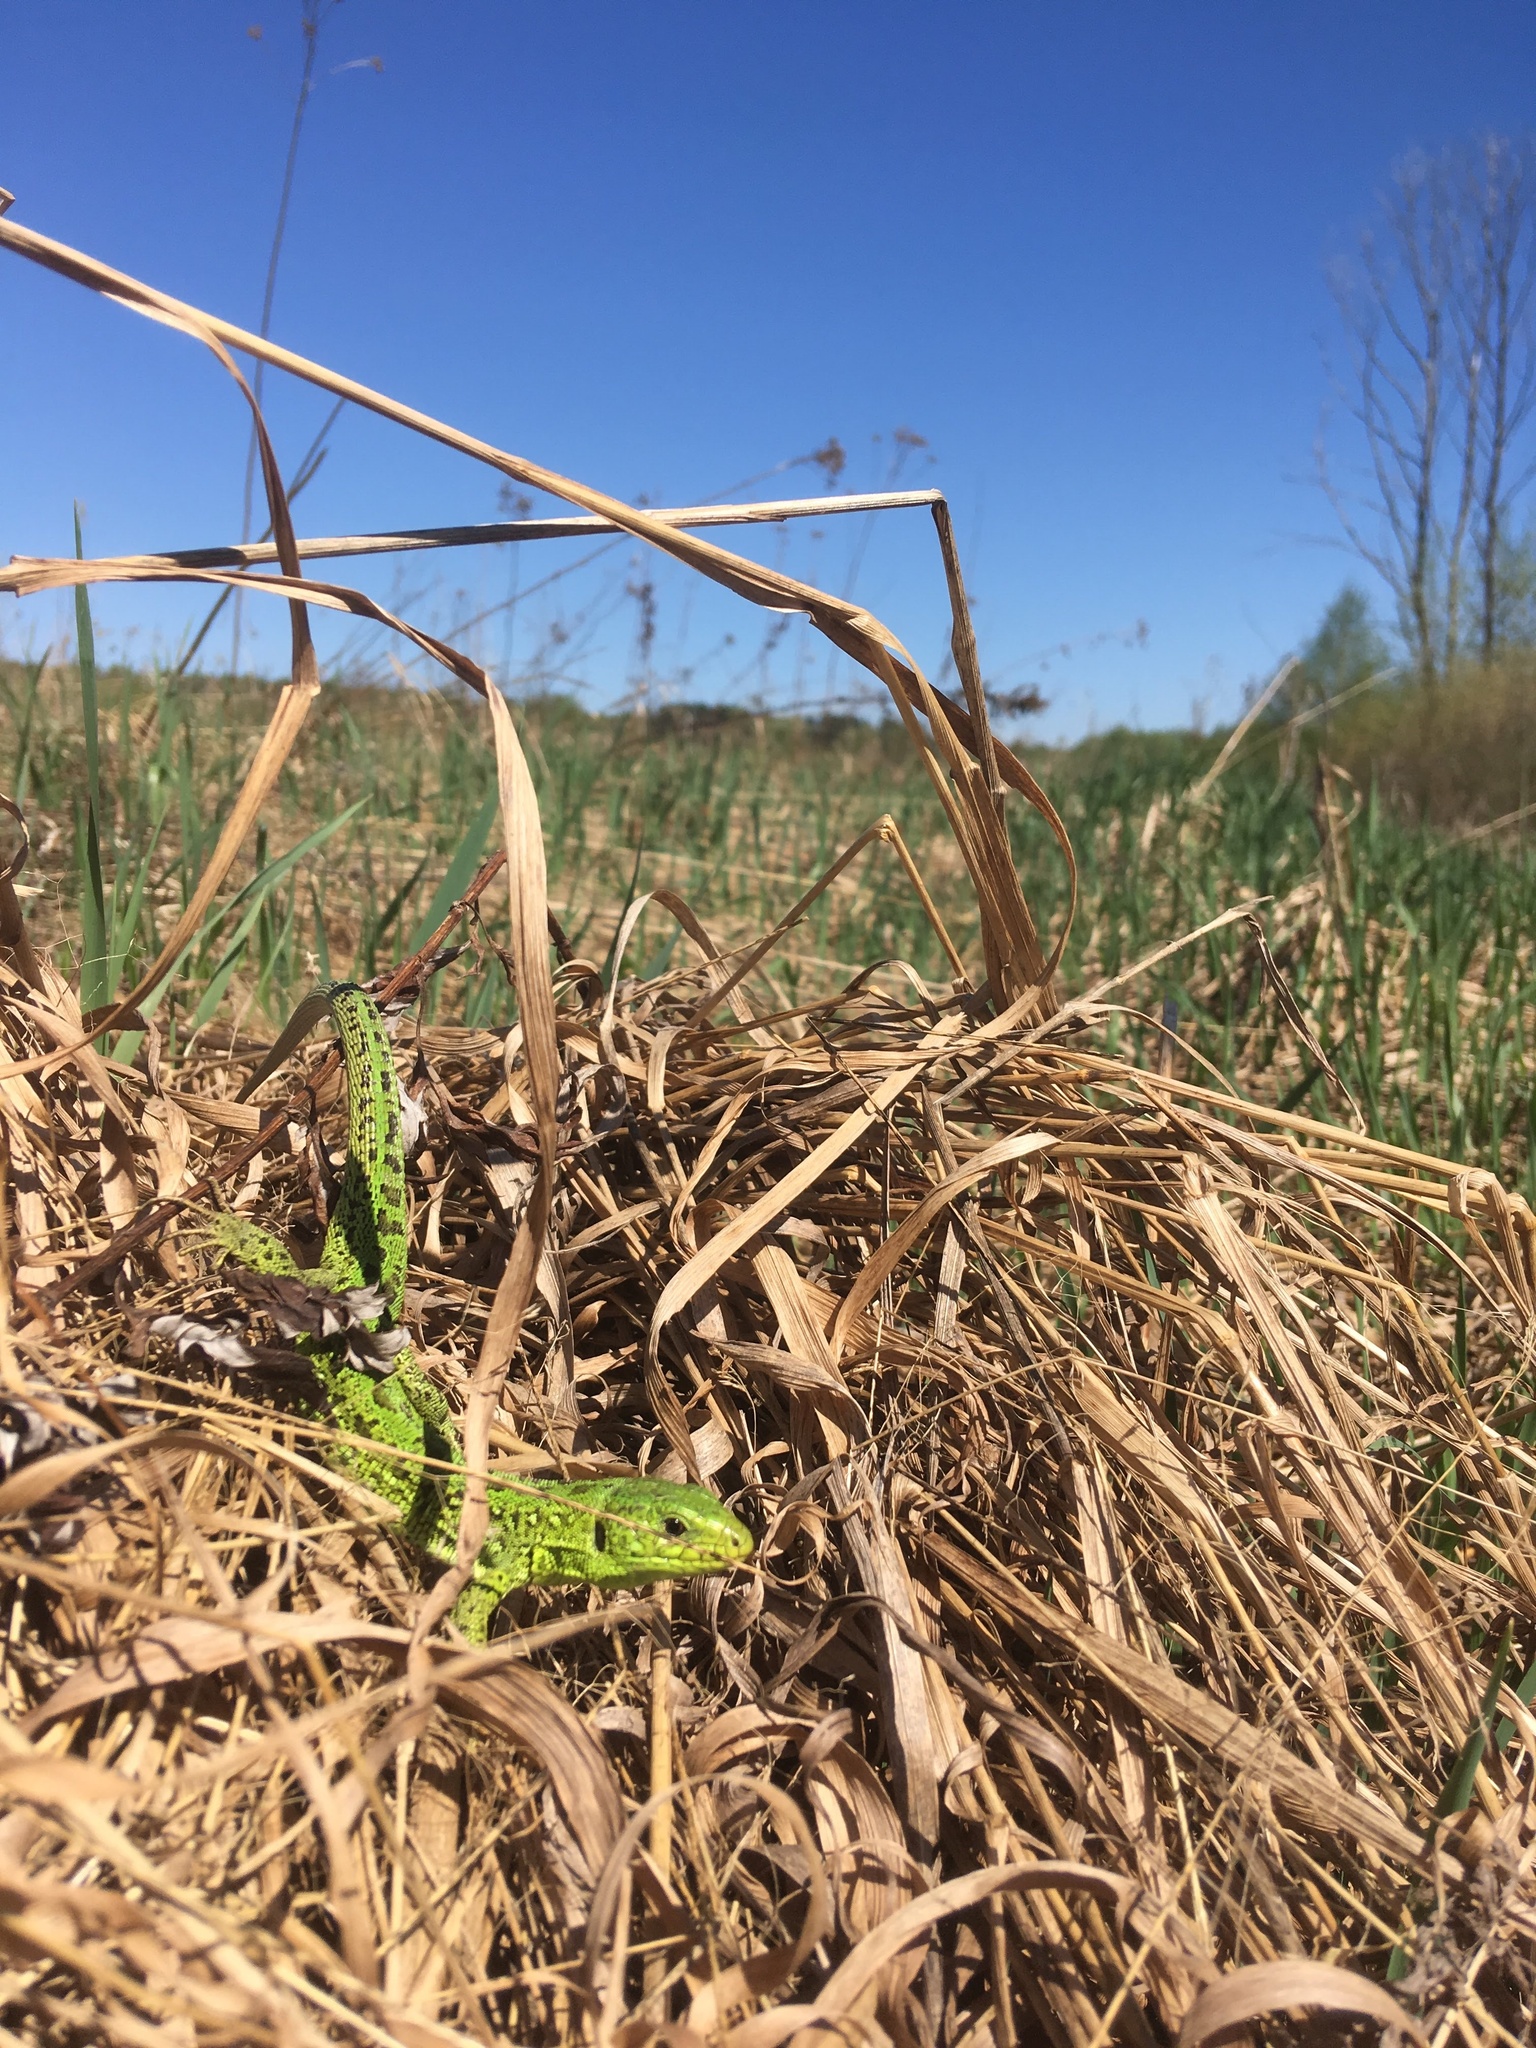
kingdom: Animalia
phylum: Chordata
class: Squamata
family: Lacertidae
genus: Lacerta
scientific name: Lacerta agilis
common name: Sand lizard
